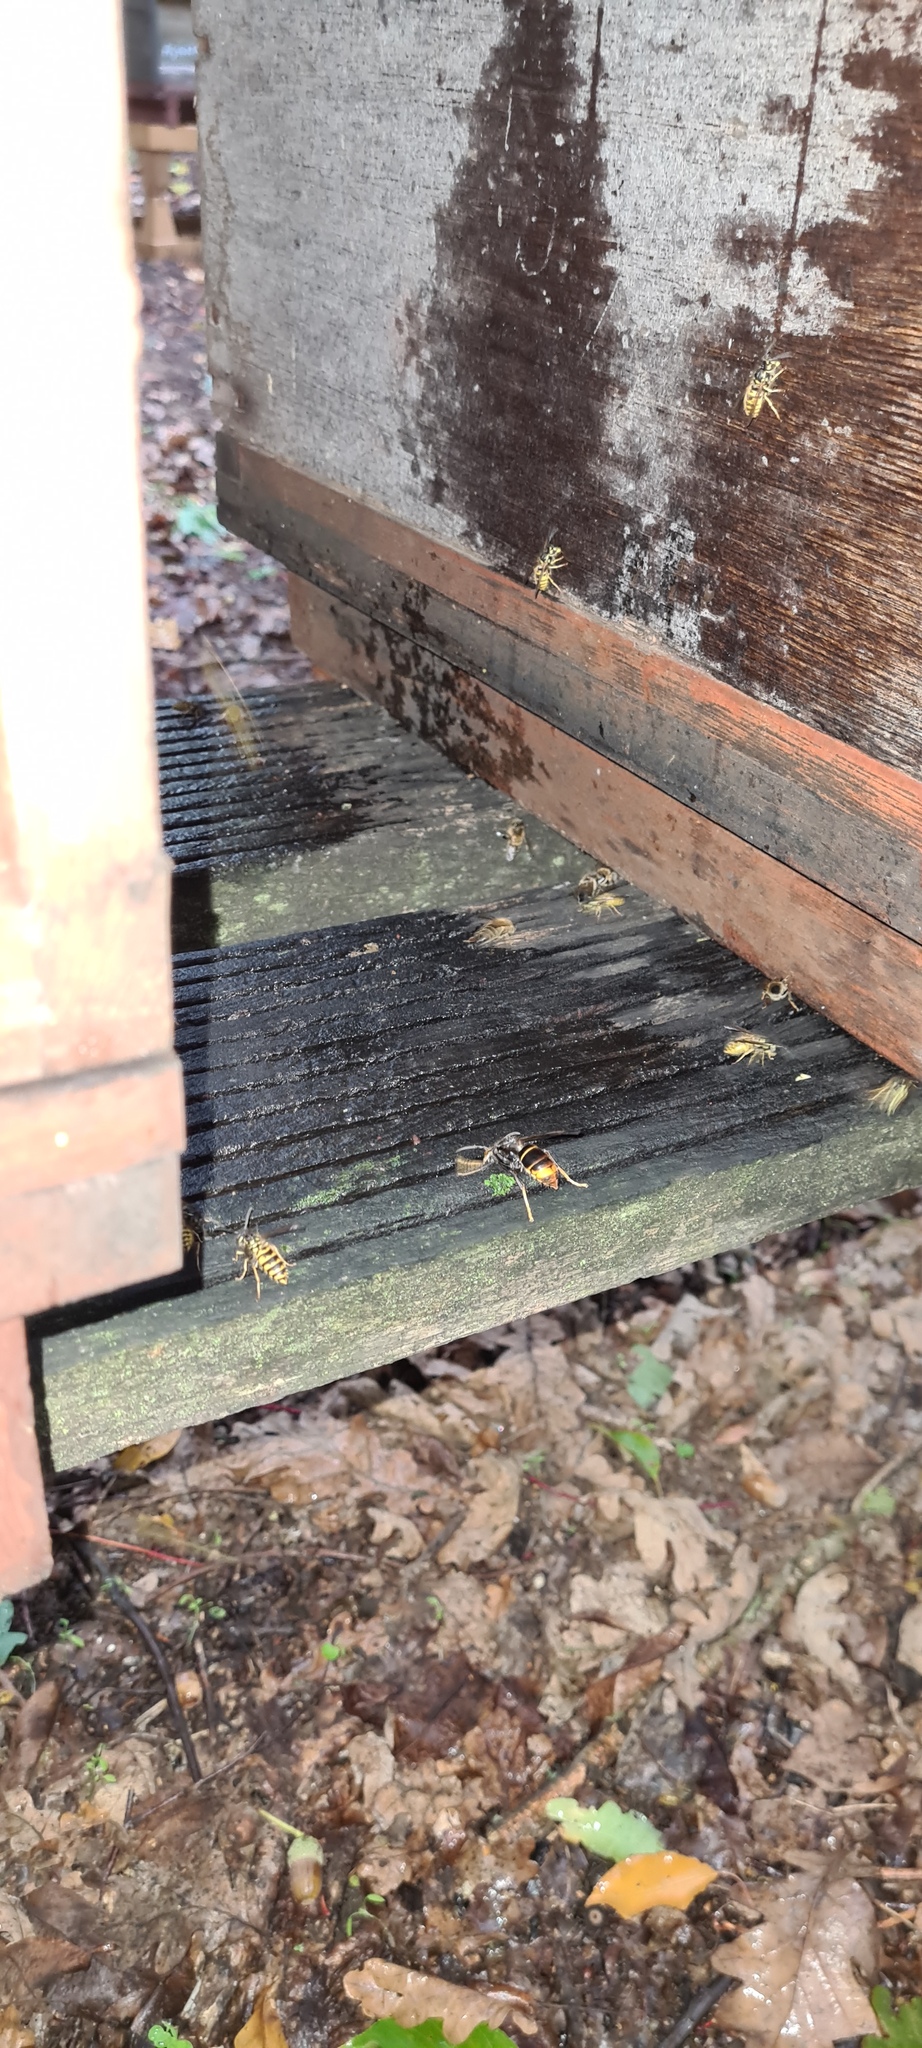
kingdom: Animalia
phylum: Arthropoda
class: Insecta
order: Hymenoptera
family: Vespidae
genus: Vespa
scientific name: Vespa velutina
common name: Asian hornet
